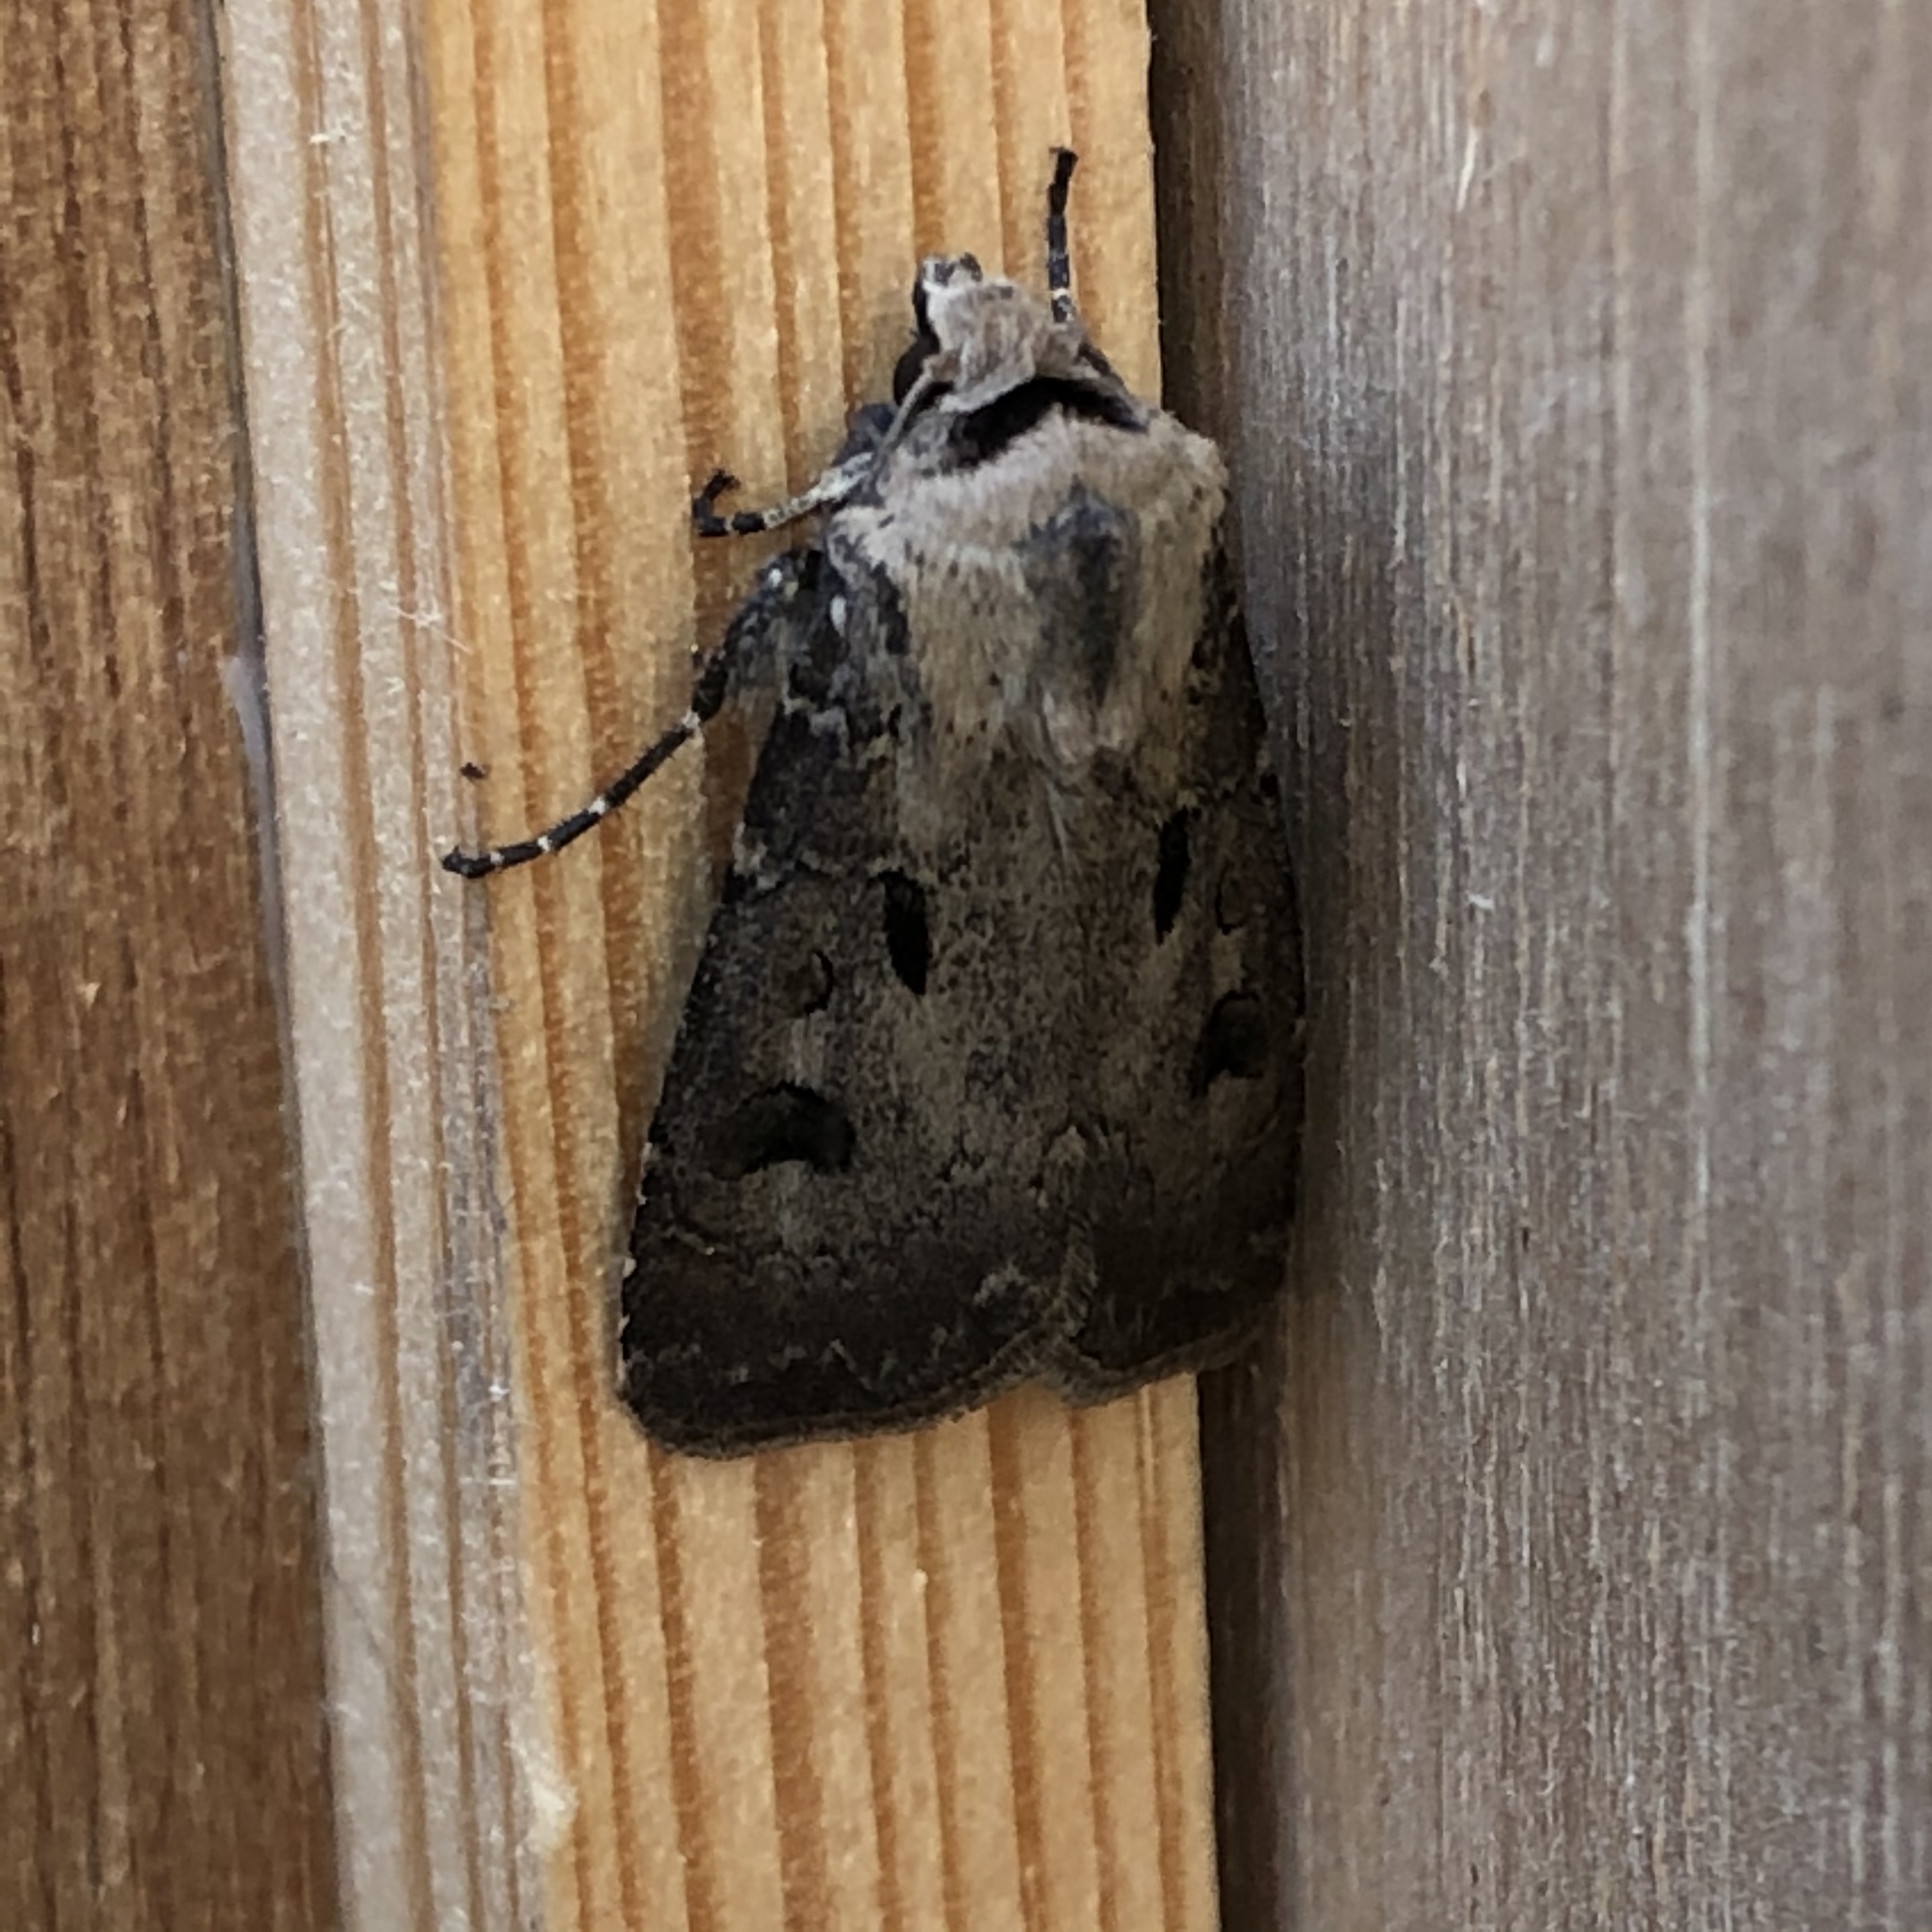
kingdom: Animalia
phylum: Arthropoda
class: Insecta
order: Lepidoptera
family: Noctuidae
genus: Agrotis
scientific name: Agrotis exclamationis
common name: Heart and dart
